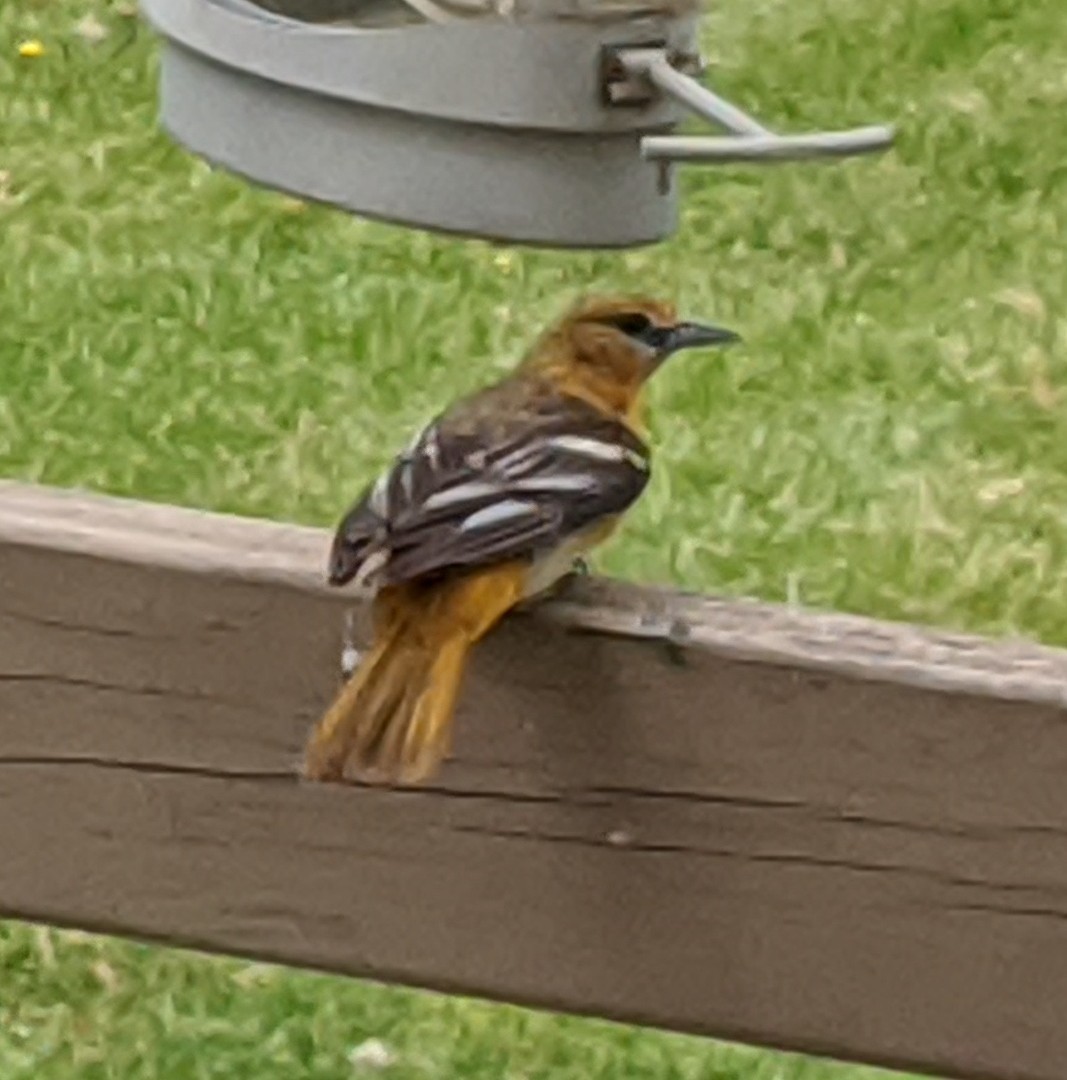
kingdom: Animalia
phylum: Chordata
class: Aves
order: Passeriformes
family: Icteridae
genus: Icterus
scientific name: Icterus galbula
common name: Baltimore oriole
